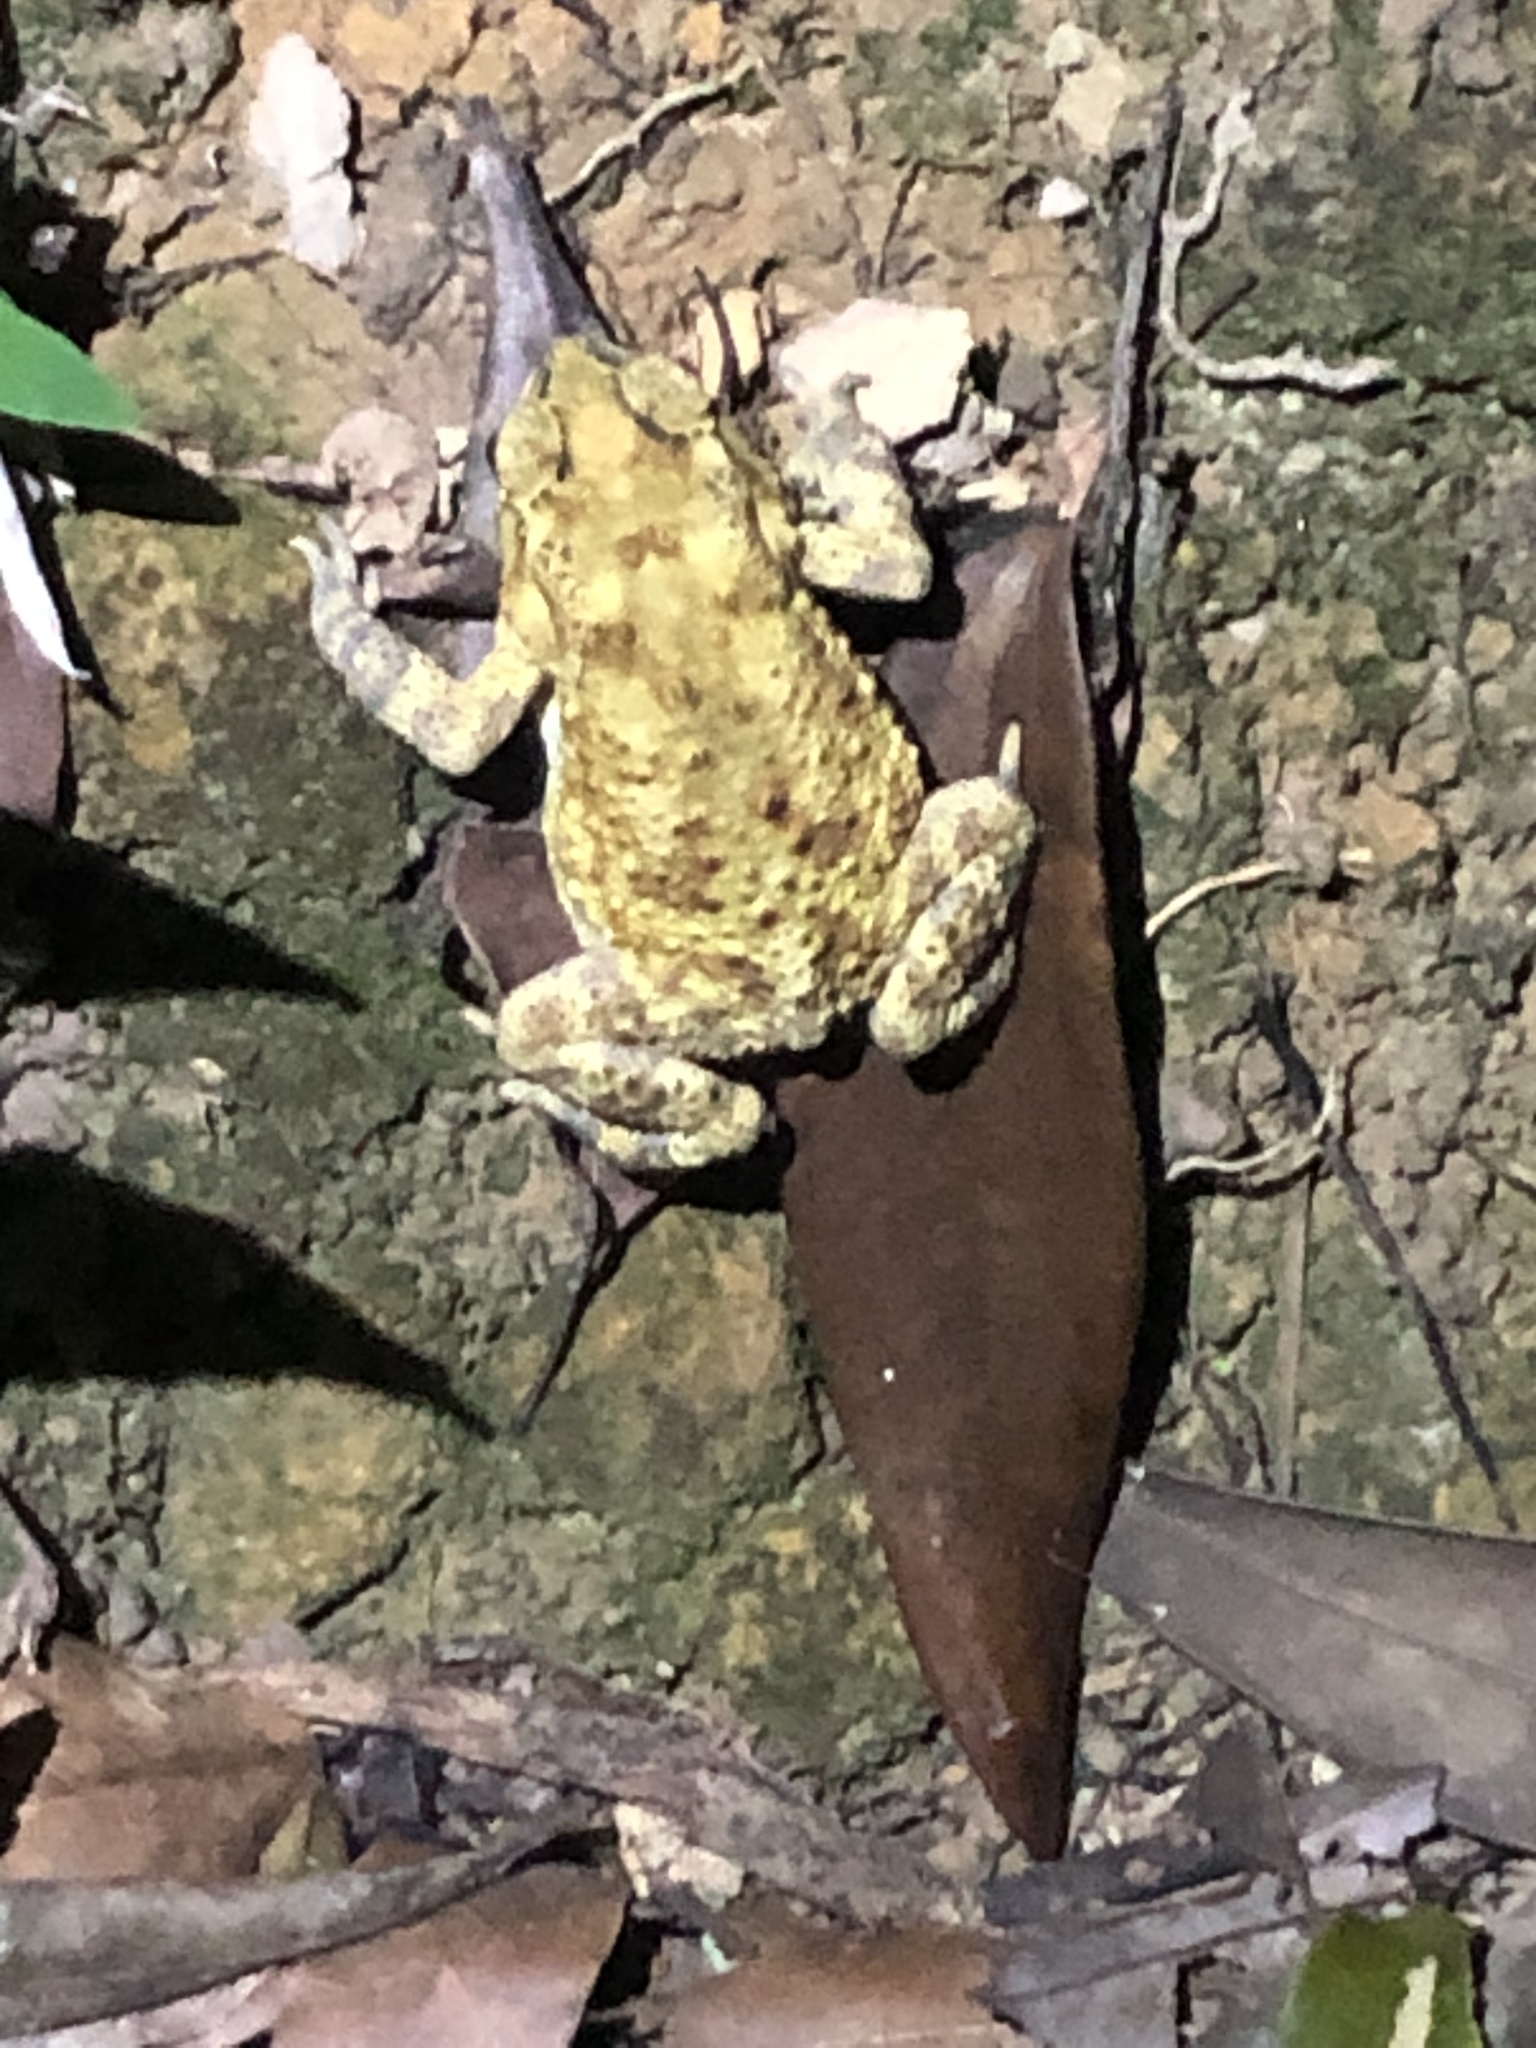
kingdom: Animalia
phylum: Chordata
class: Amphibia
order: Anura
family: Bufonidae
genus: Duttaphrynus
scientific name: Duttaphrynus melanostictus
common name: Common sunda toad
